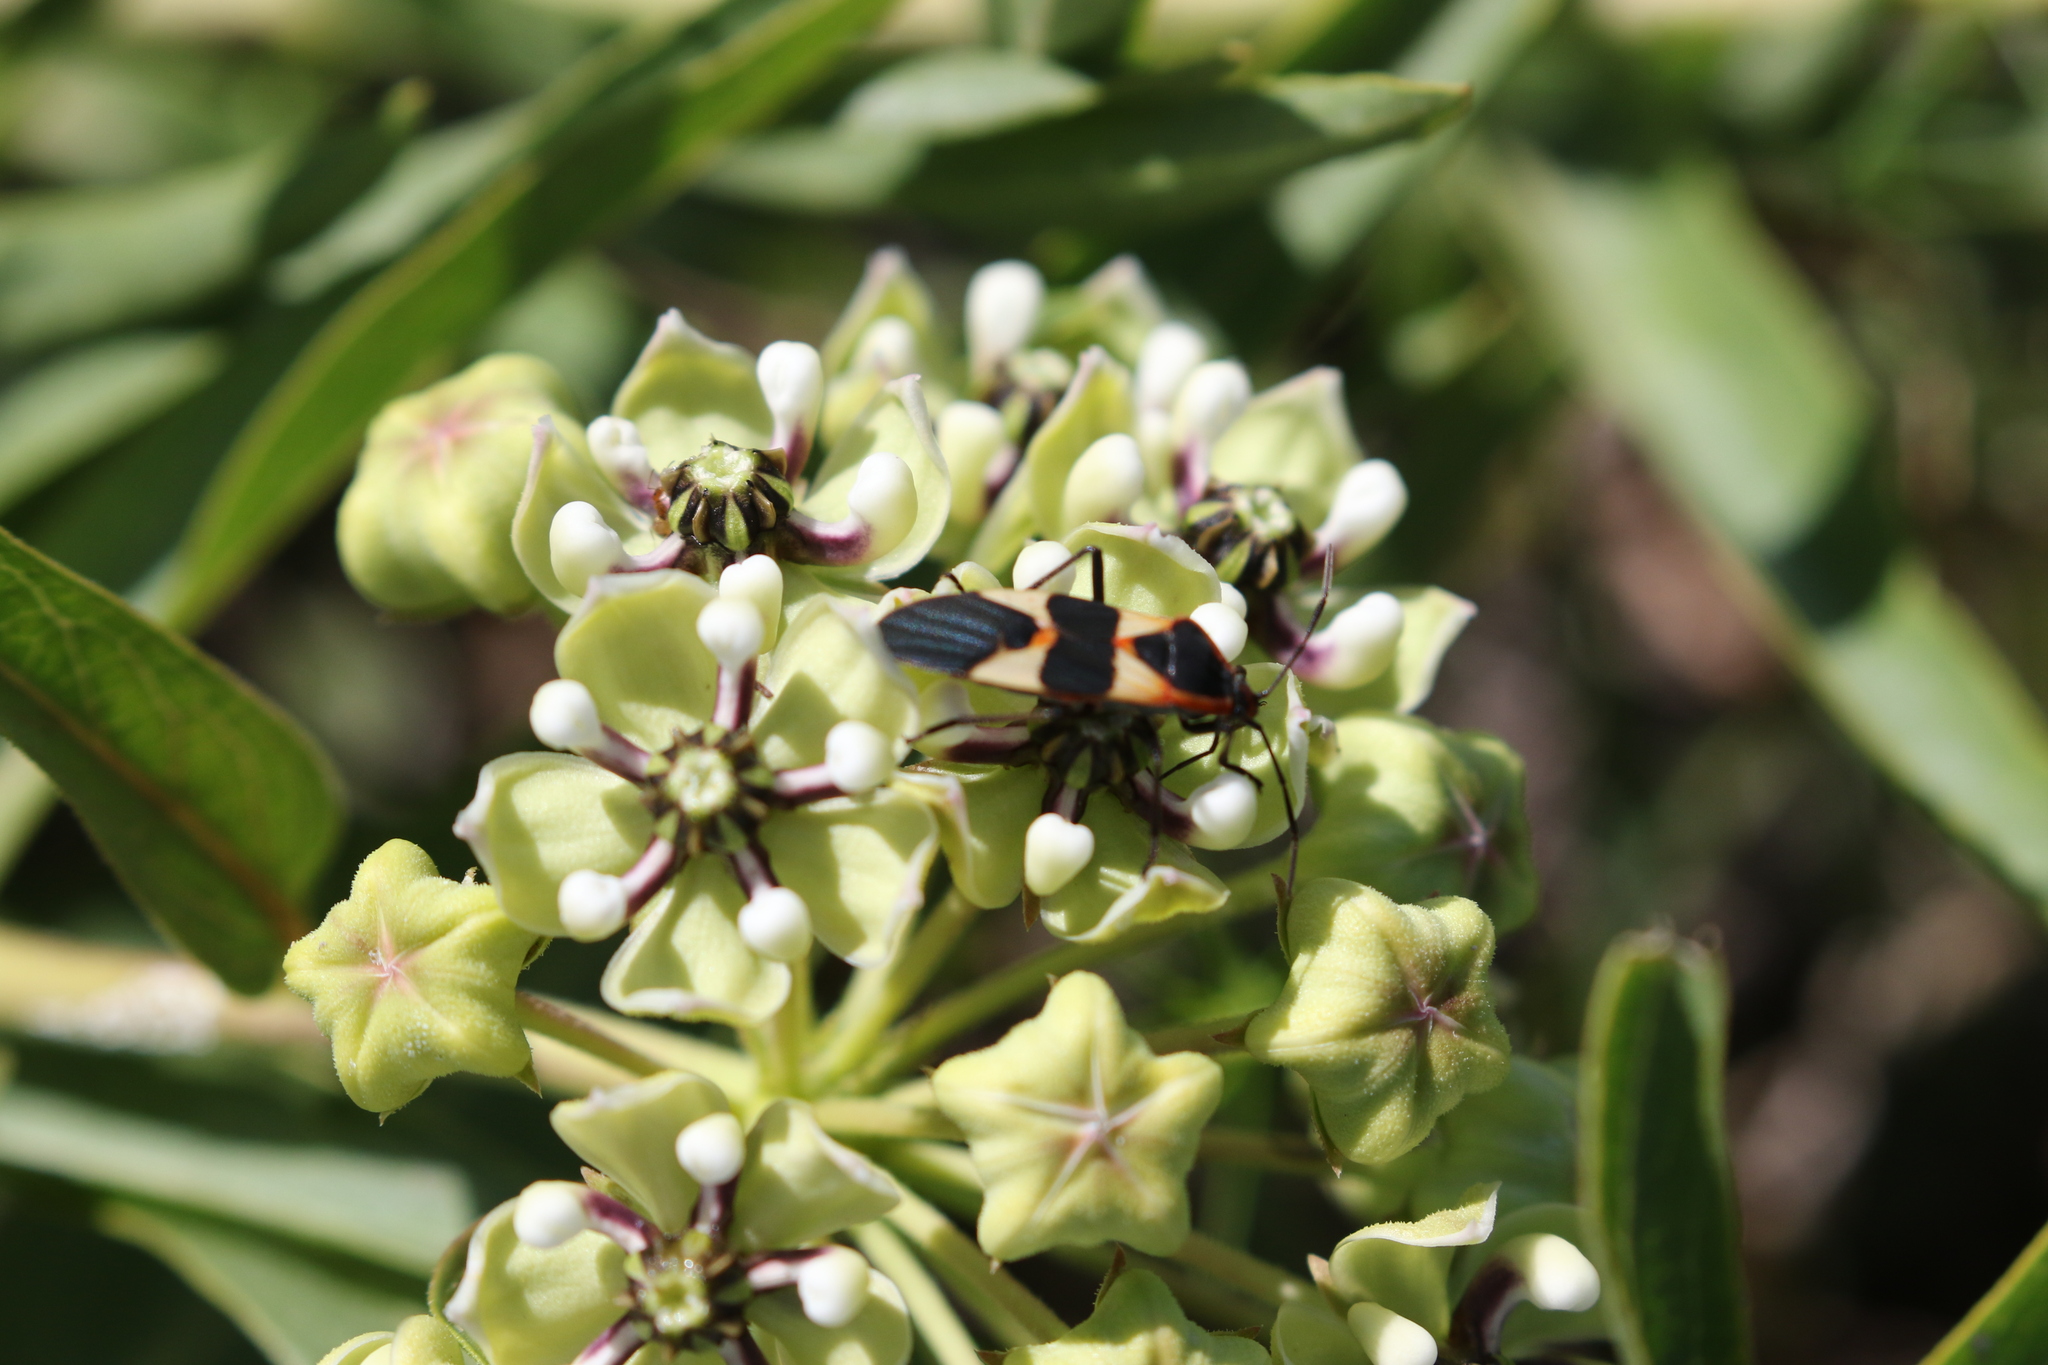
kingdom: Animalia
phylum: Arthropoda
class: Insecta
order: Hemiptera
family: Lygaeidae
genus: Oncopeltus
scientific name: Oncopeltus fasciatus
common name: Large milkweed bug
